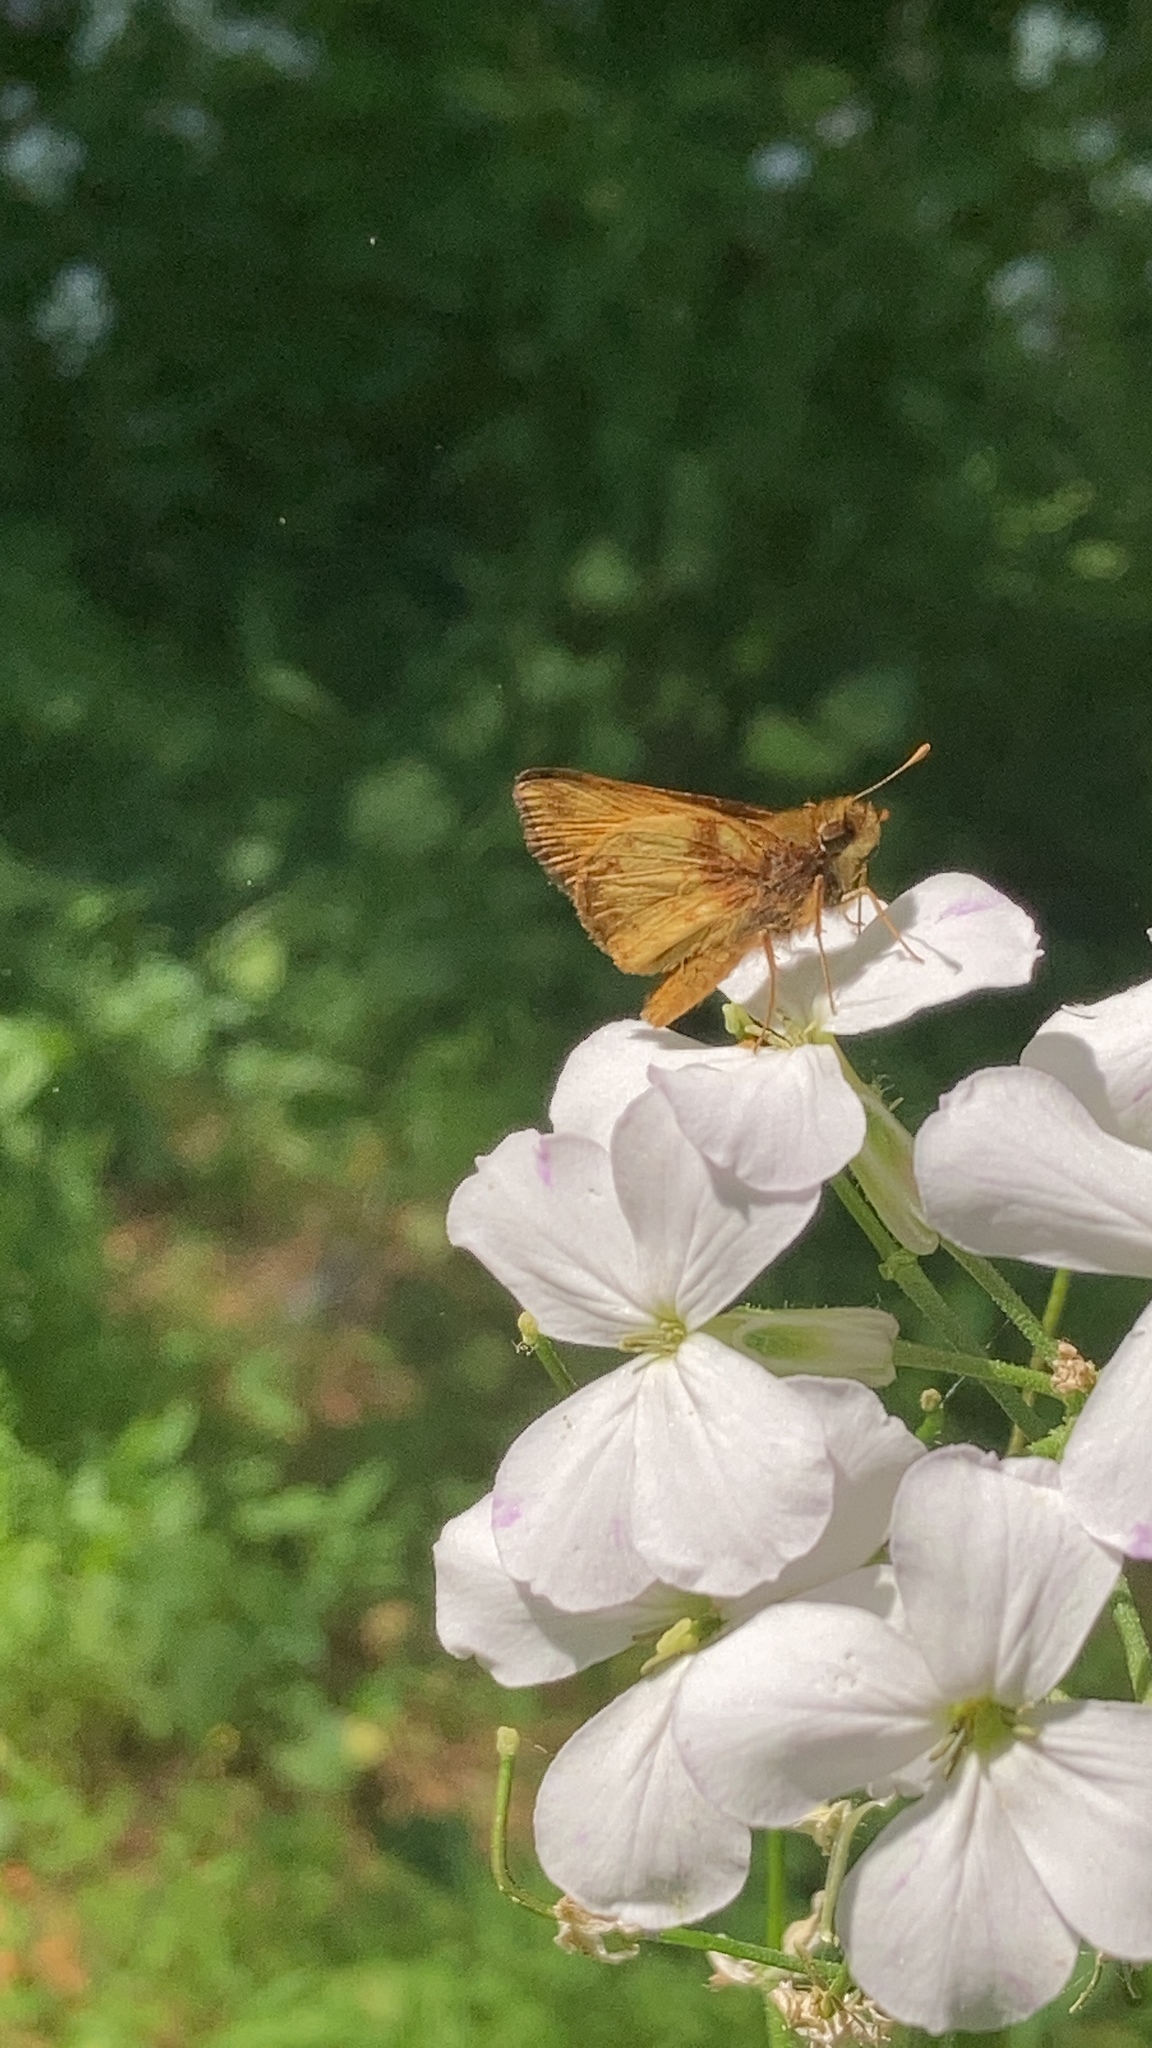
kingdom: Animalia
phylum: Arthropoda
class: Insecta
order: Lepidoptera
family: Hesperiidae
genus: Lon
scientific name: Lon zabulon
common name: Zabulon skipper
